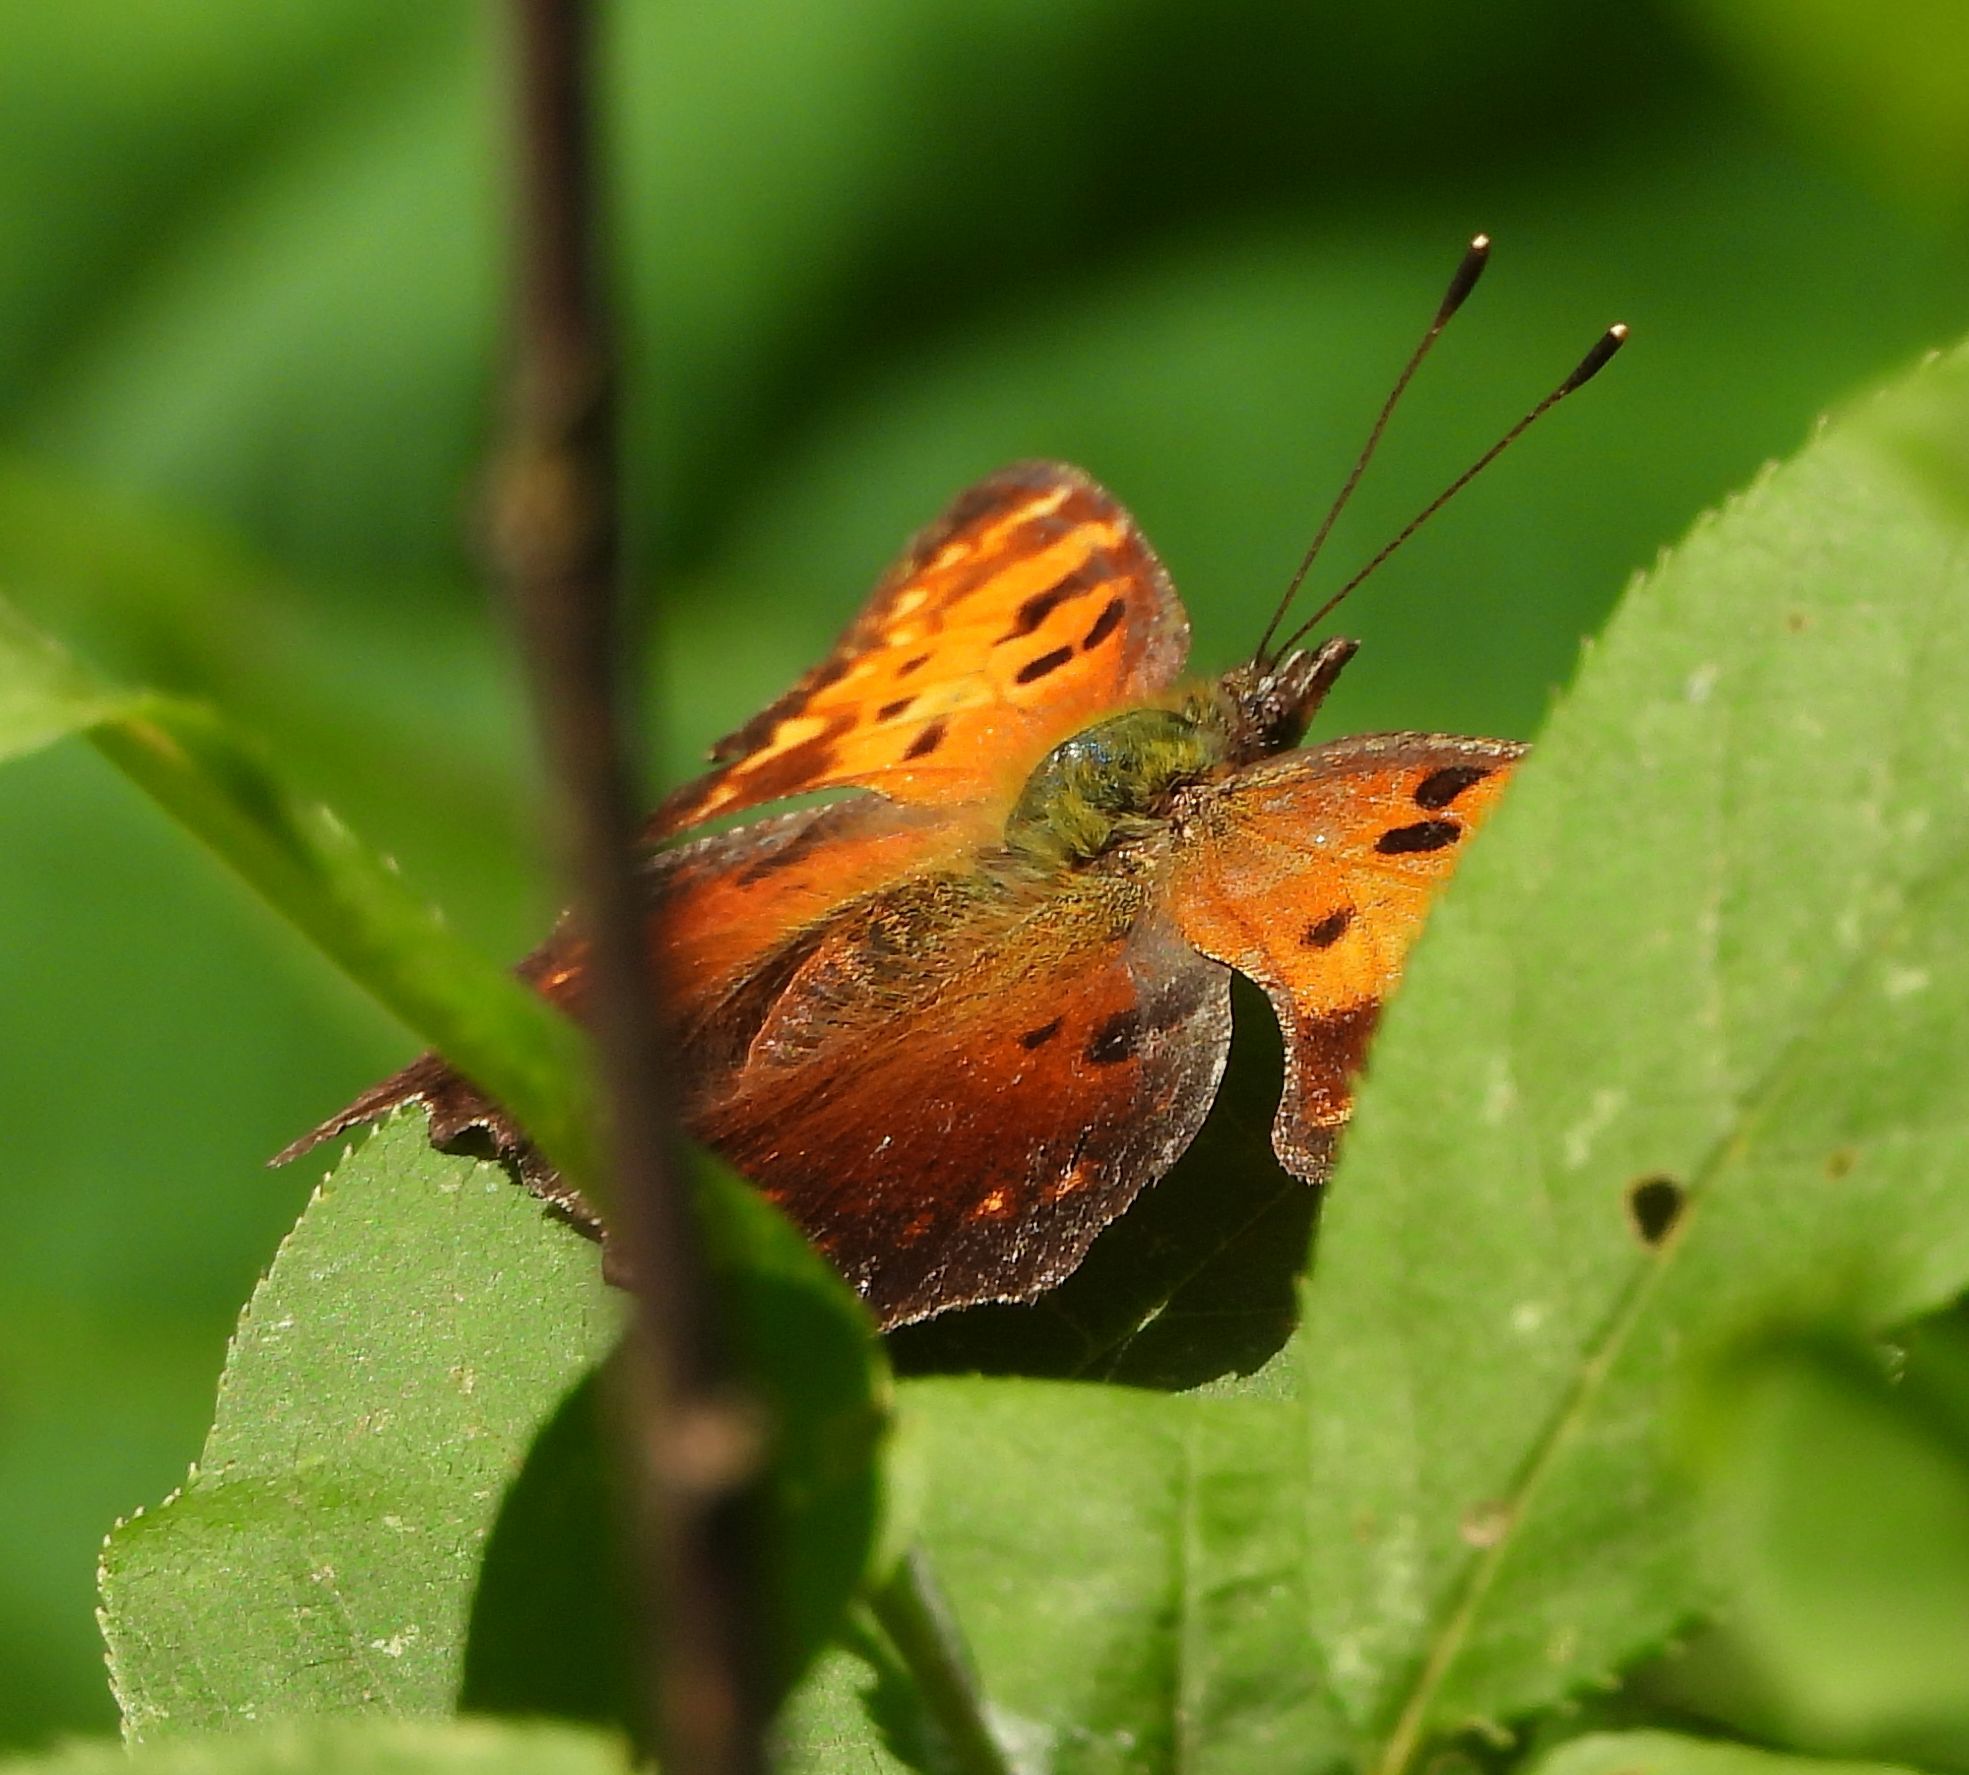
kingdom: Animalia
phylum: Arthropoda
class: Insecta
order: Lepidoptera
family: Nymphalidae
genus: Polygonia
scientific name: Polygonia progne
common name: Gray comma
